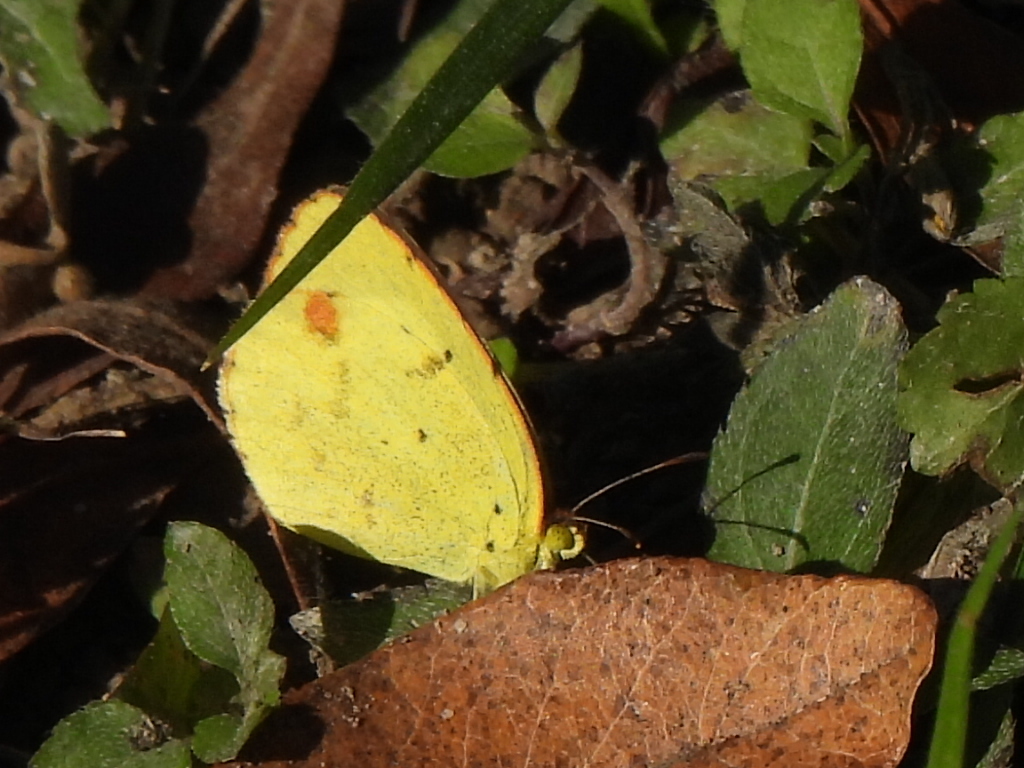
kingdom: Animalia
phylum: Arthropoda
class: Insecta
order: Lepidoptera
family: Pieridae
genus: Pyrisitia
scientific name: Pyrisitia lisa
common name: Little yellow
